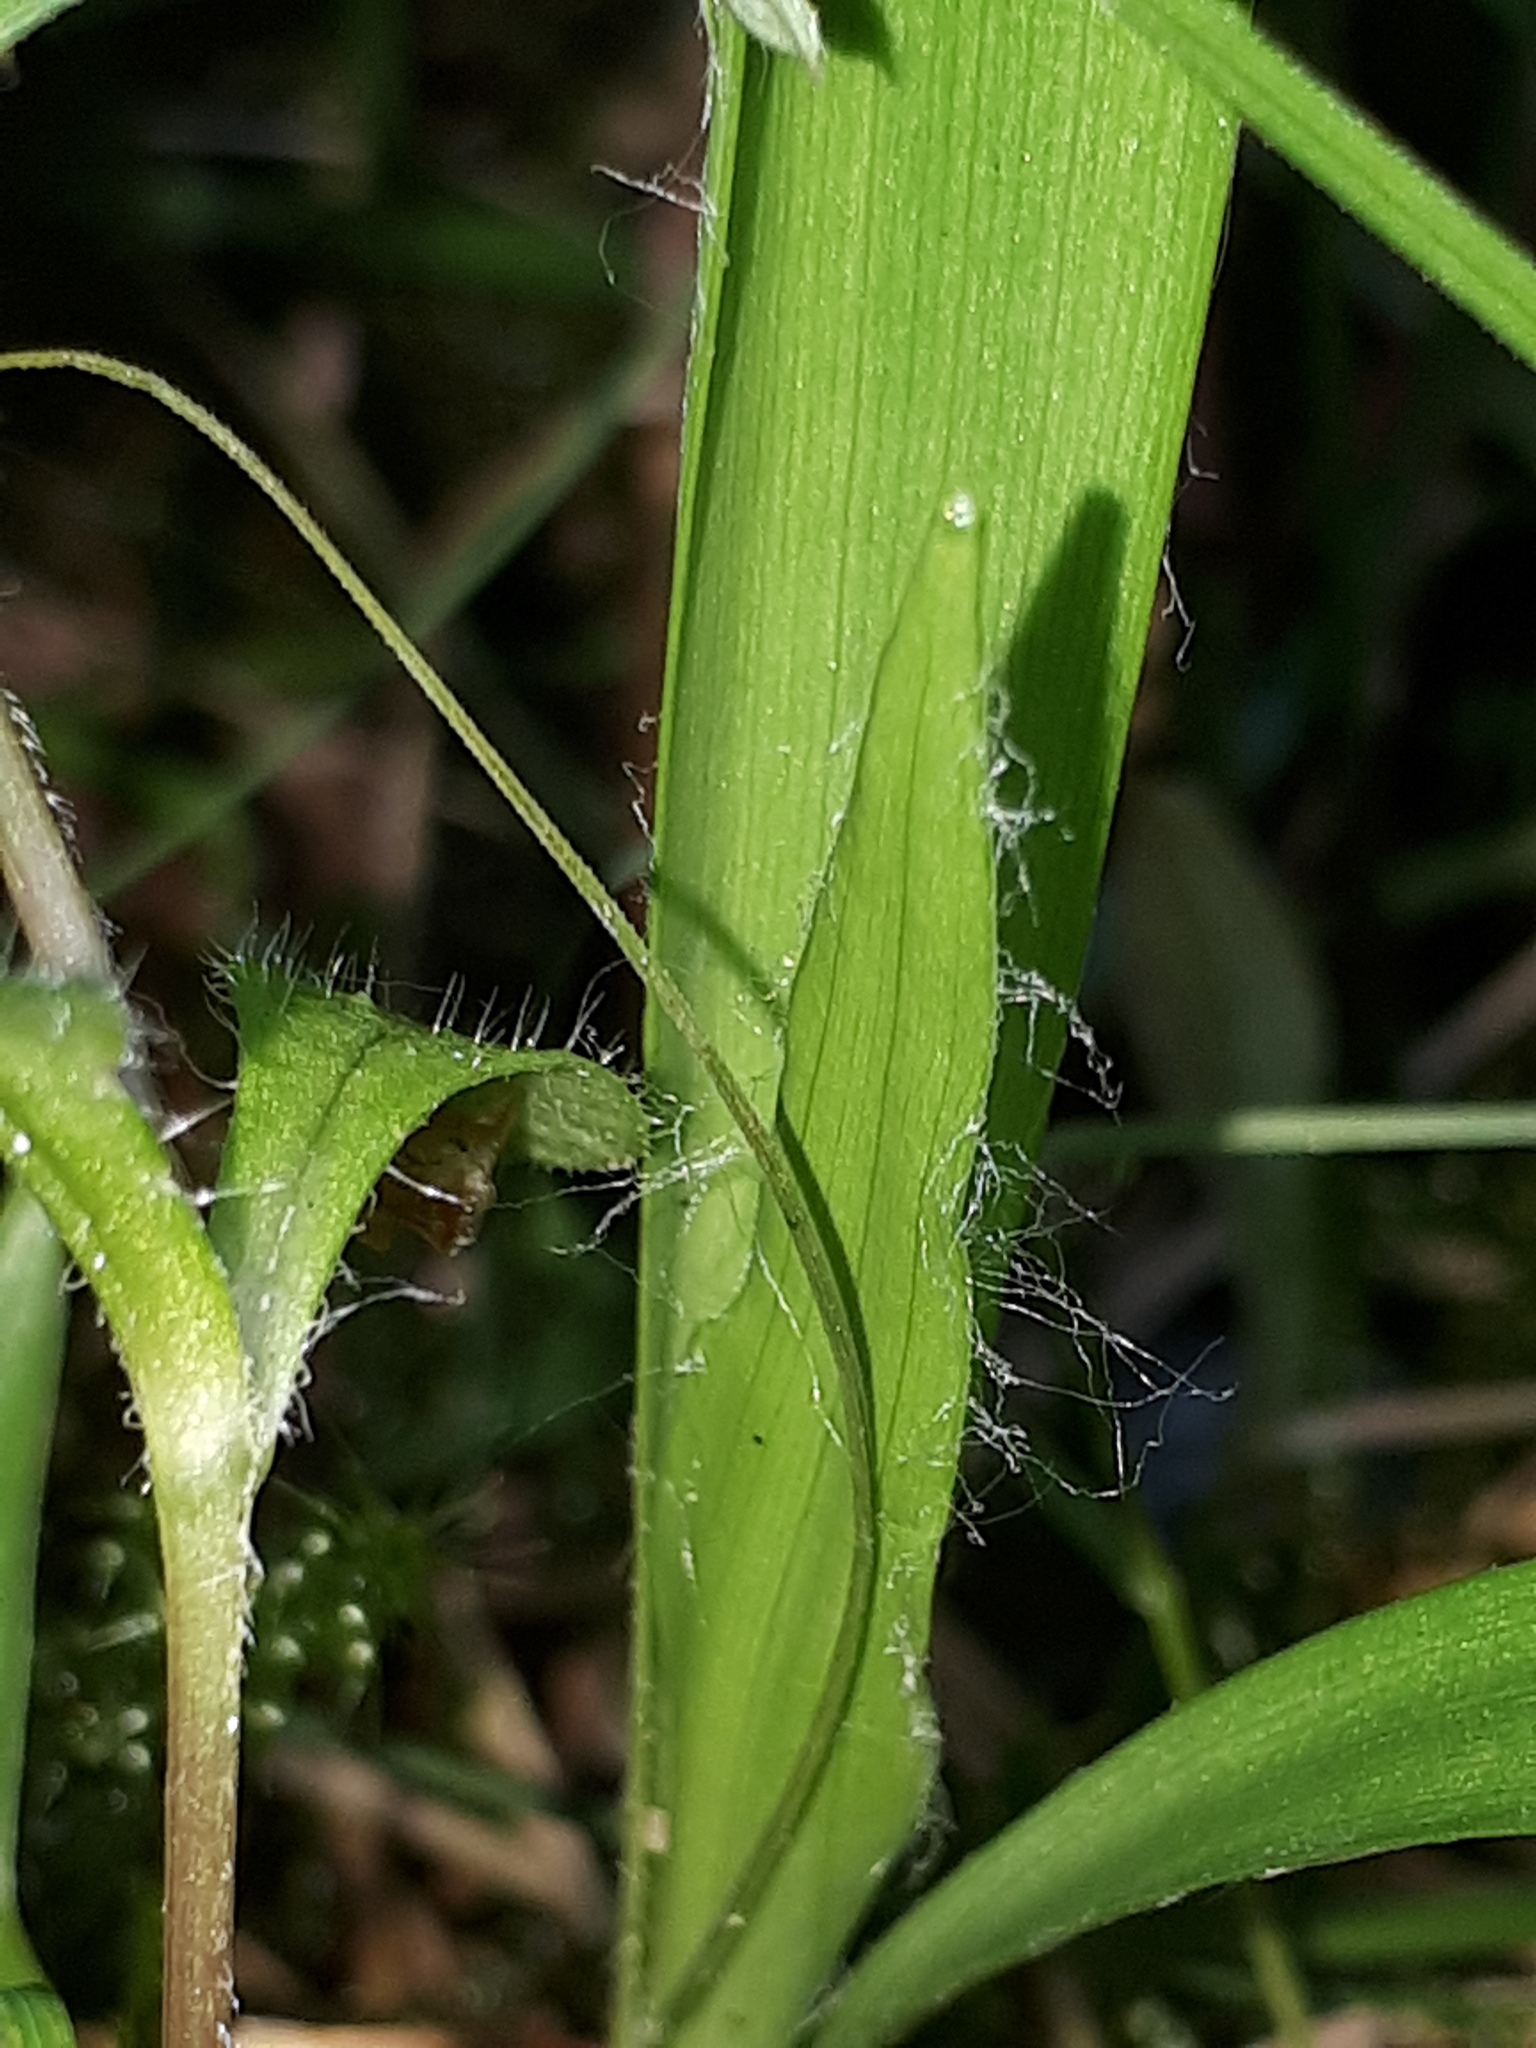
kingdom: Plantae
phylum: Tracheophyta
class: Liliopsida
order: Poales
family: Juncaceae
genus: Luzula
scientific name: Luzula pilosa
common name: Hairy wood-rush
